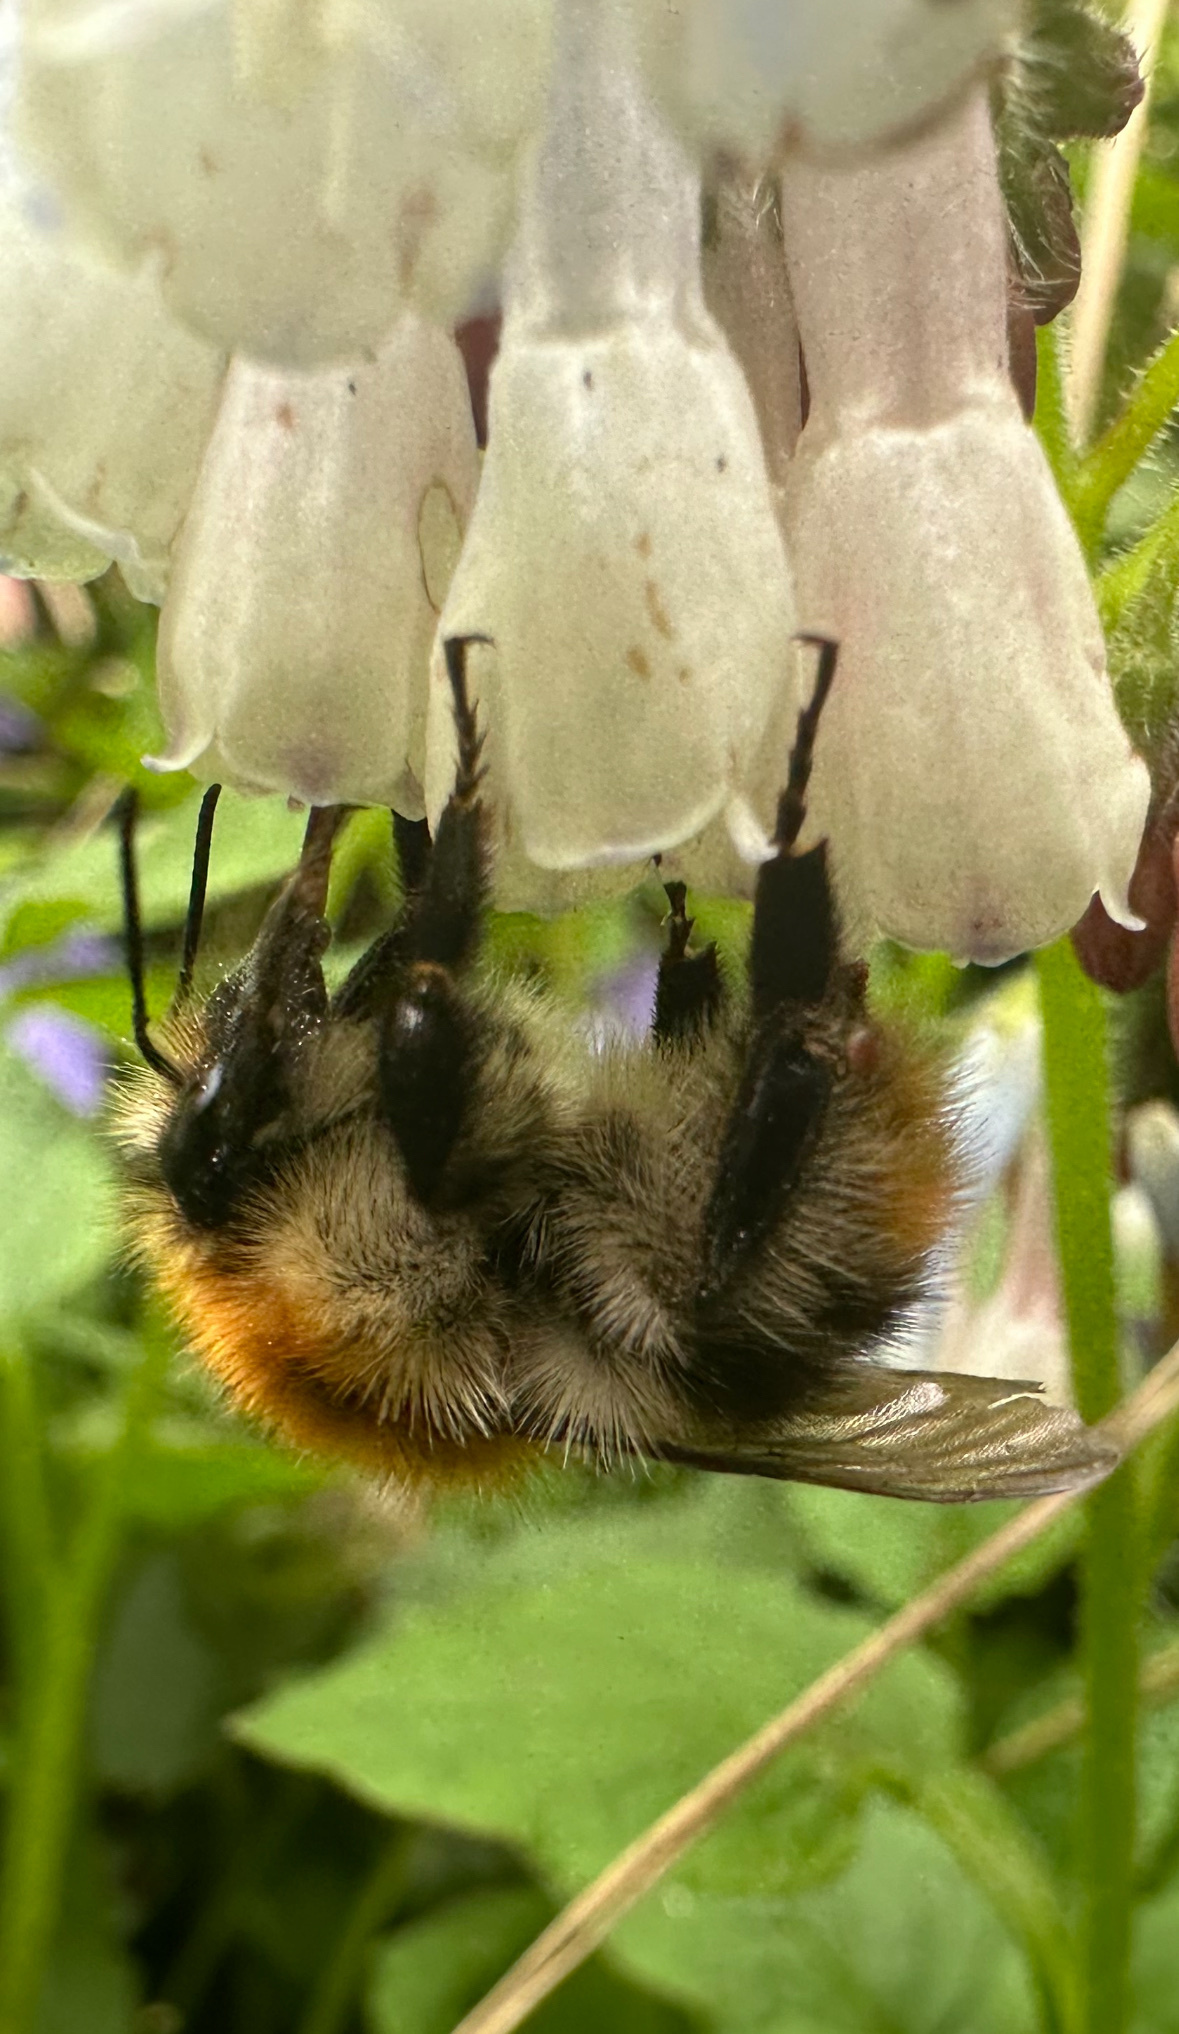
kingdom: Animalia
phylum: Arthropoda
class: Insecta
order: Hymenoptera
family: Apidae
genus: Bombus
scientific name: Bombus pascuorum
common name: Common carder bee
